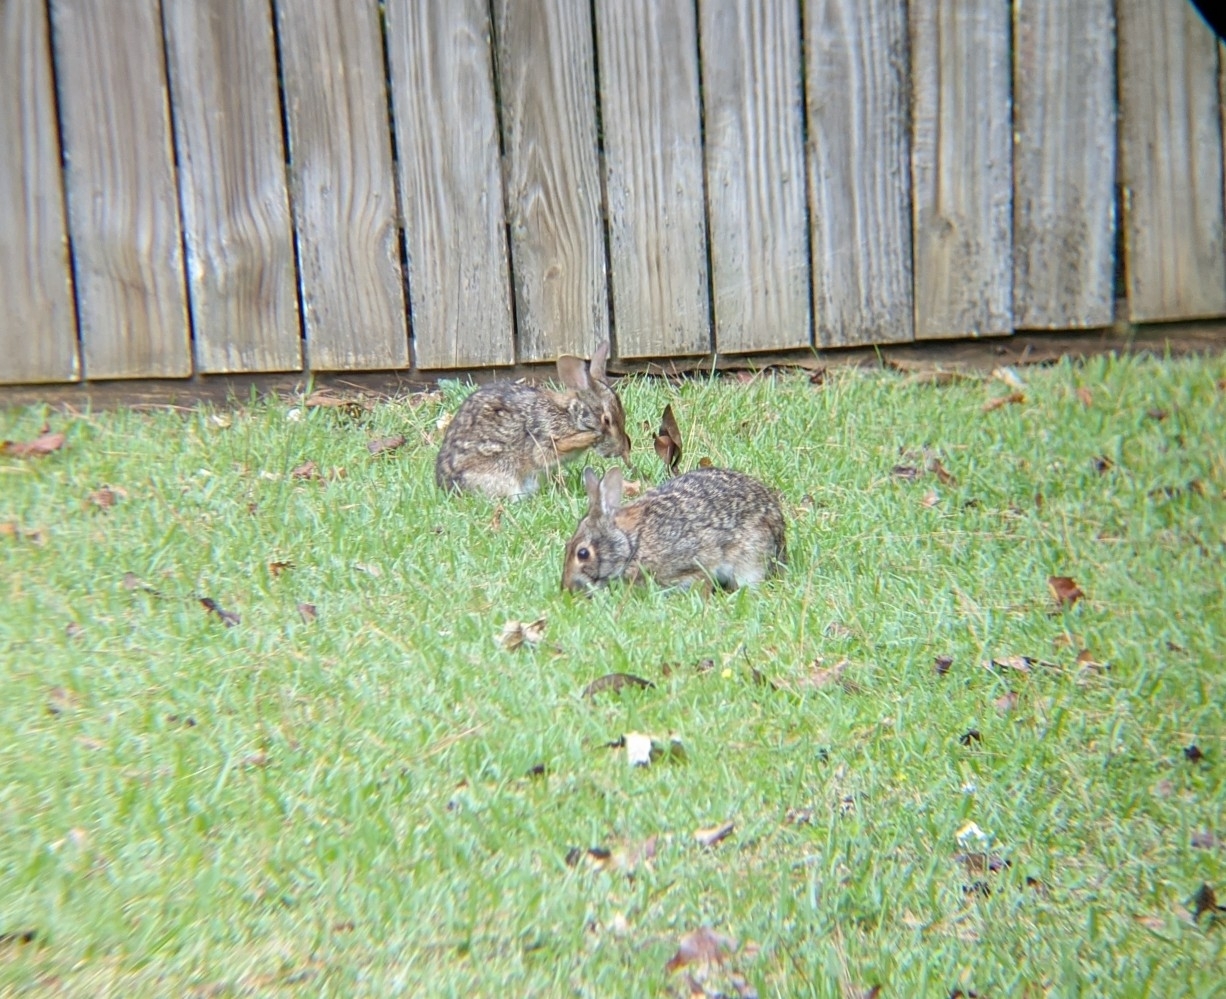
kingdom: Animalia
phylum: Chordata
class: Mammalia
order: Lagomorpha
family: Leporidae
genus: Sylvilagus
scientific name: Sylvilagus aquaticus
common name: Swamp rabbit
